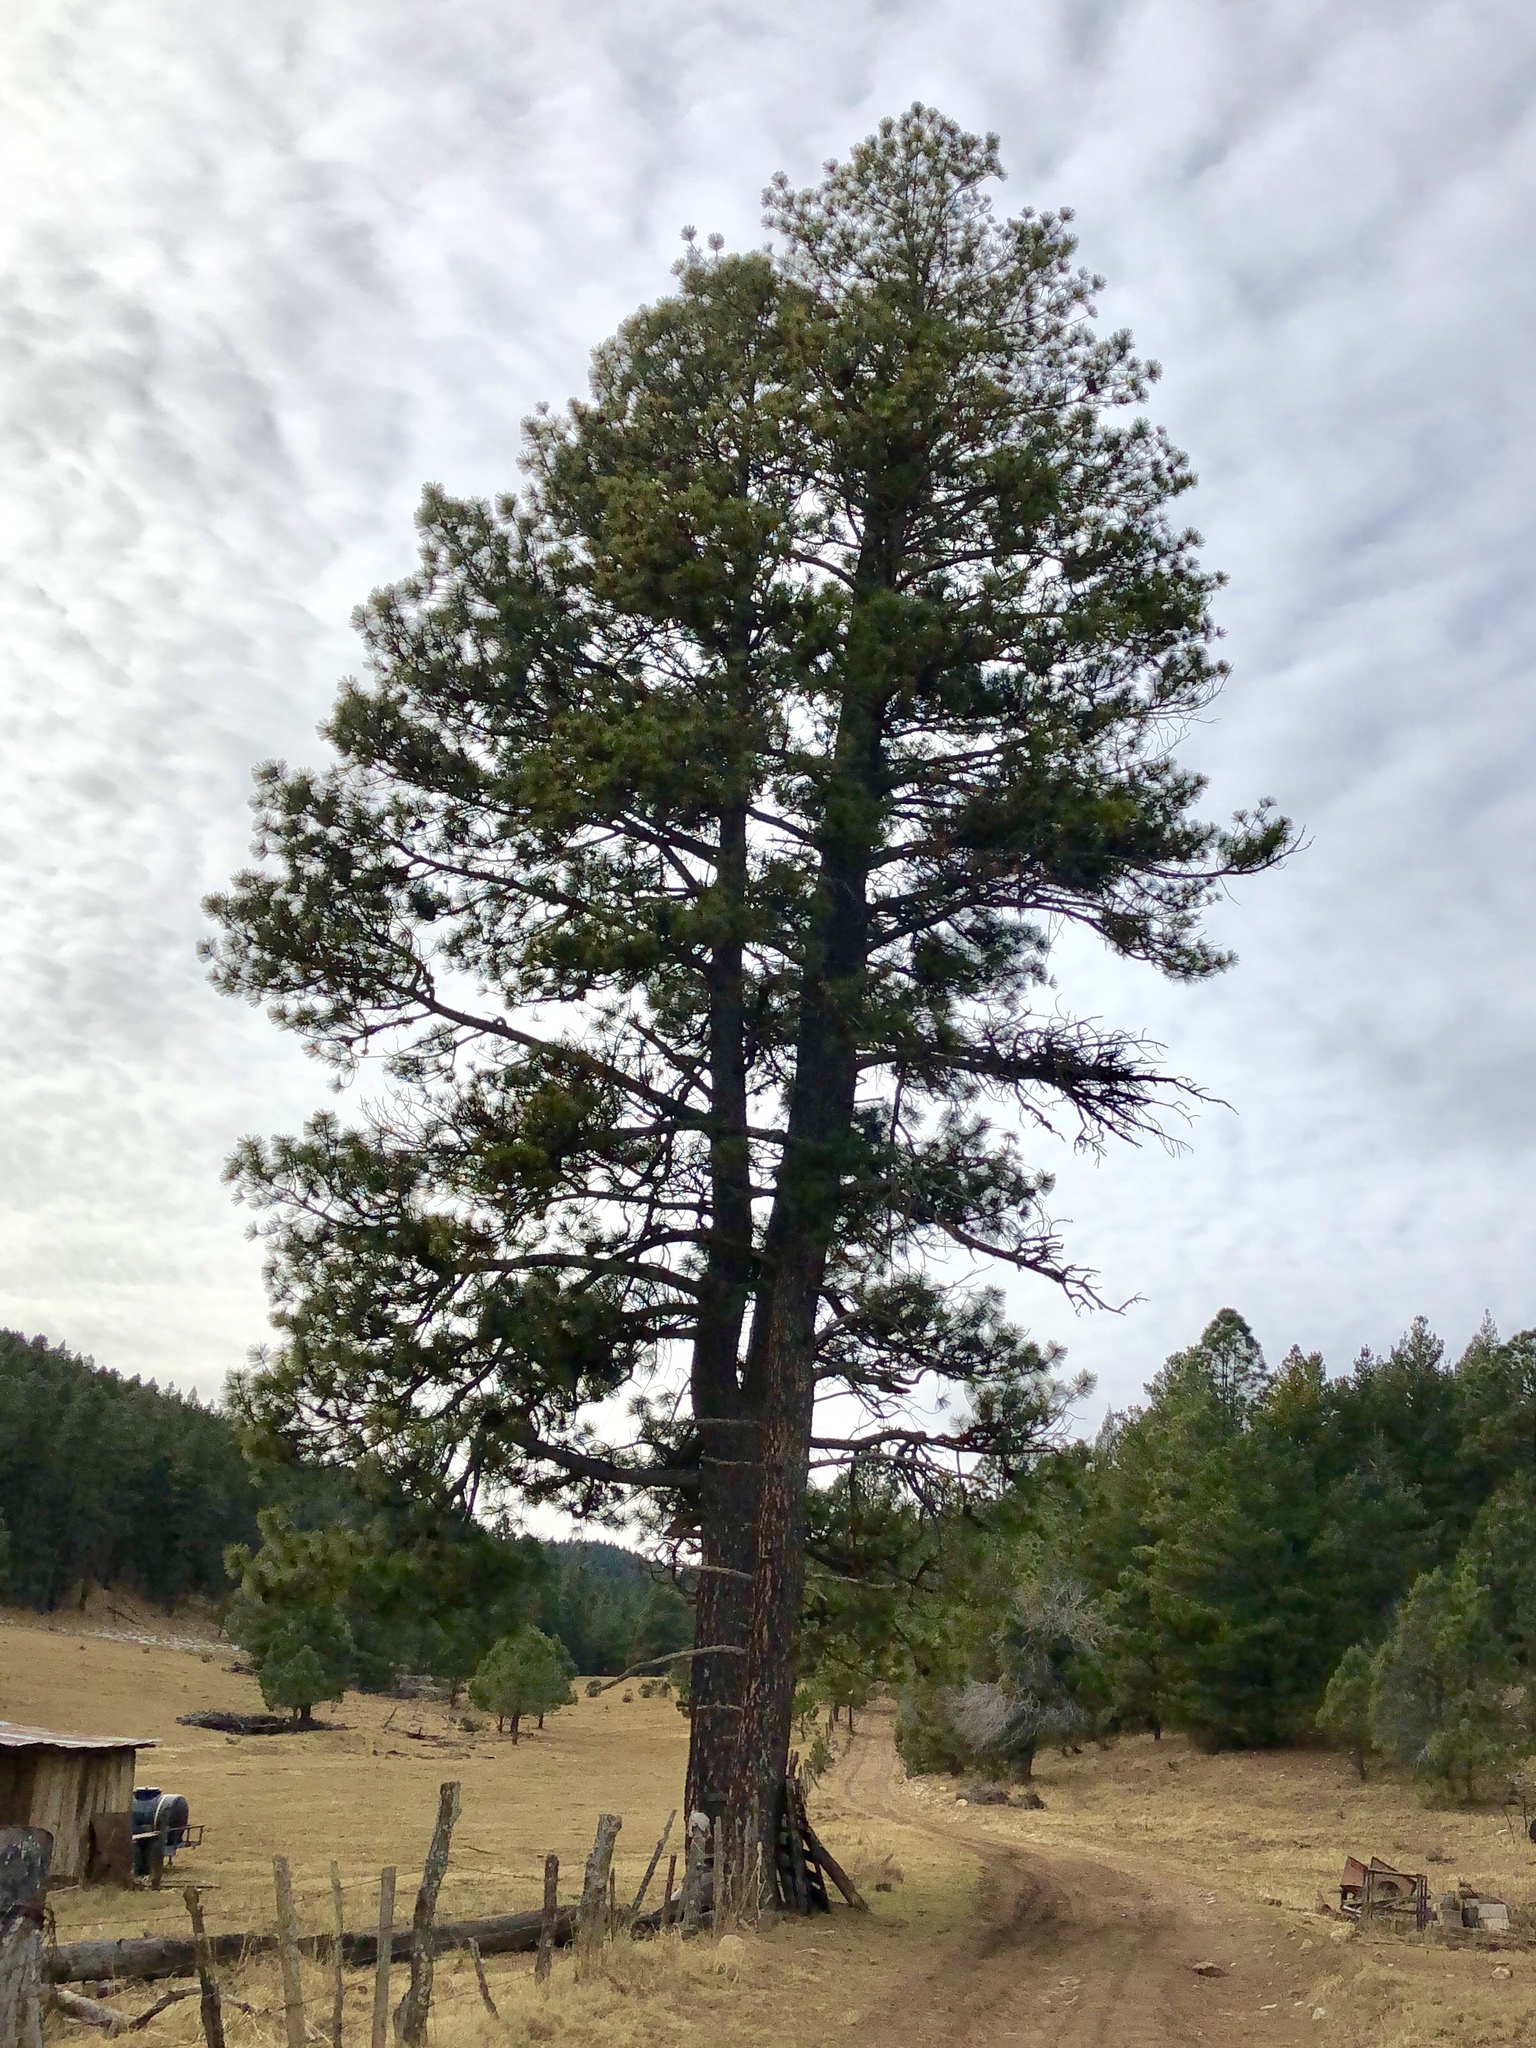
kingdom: Plantae
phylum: Tracheophyta
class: Pinopsida
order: Pinales
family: Pinaceae
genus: Pinus
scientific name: Pinus ponderosa
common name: Western yellow-pine
